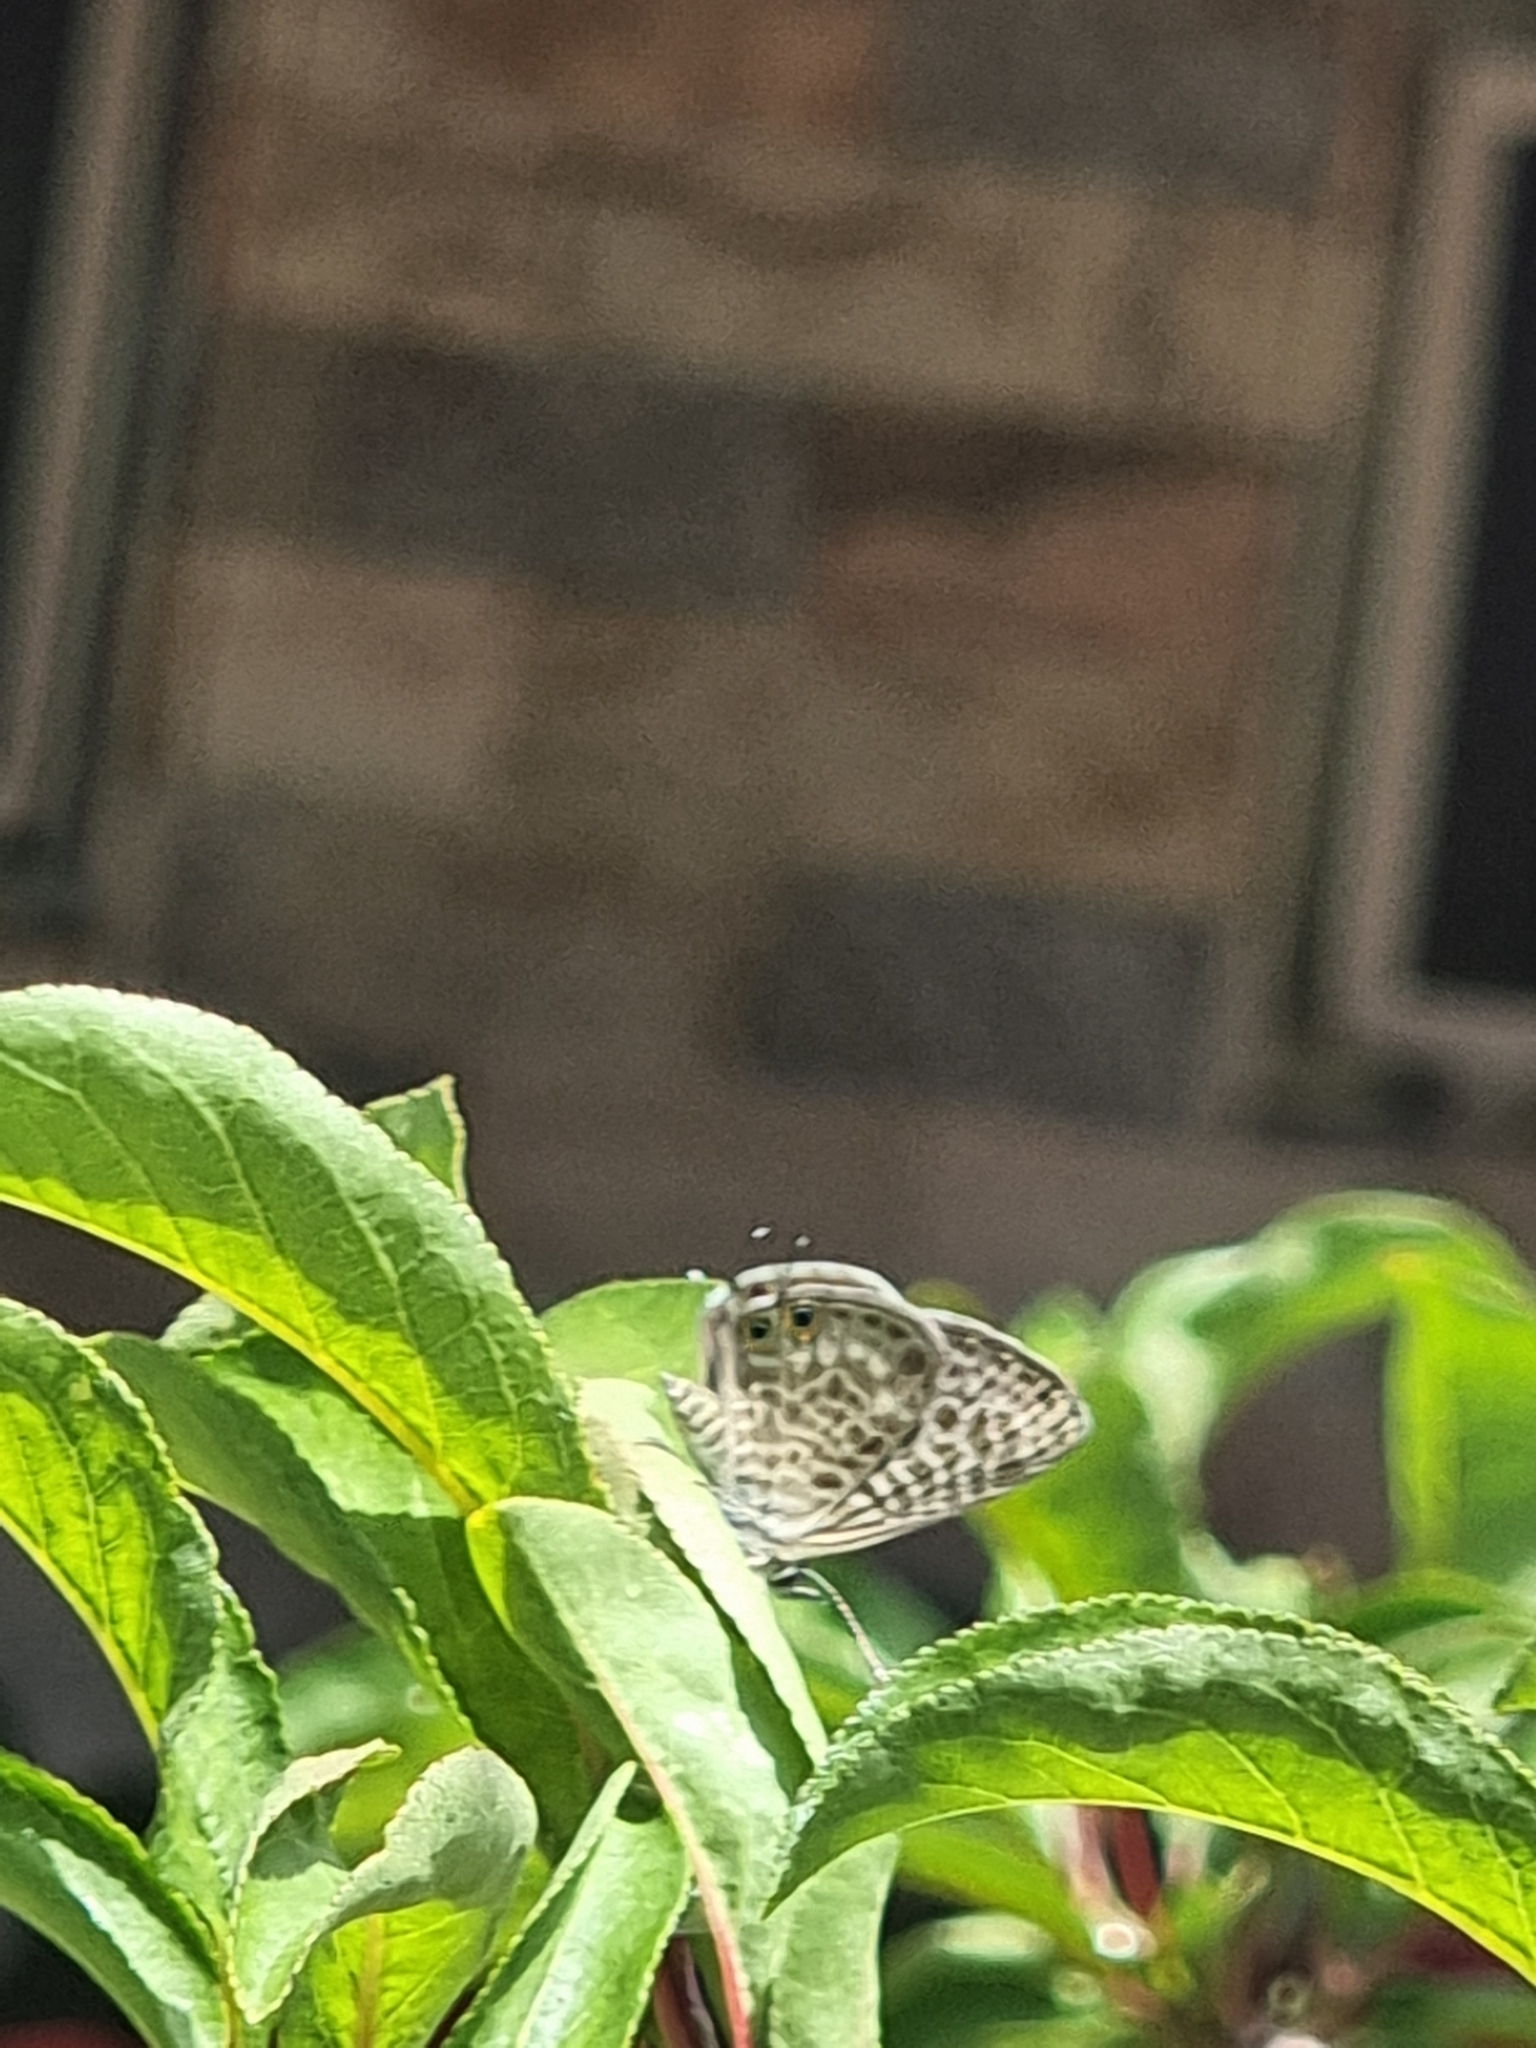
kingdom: Animalia
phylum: Arthropoda
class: Insecta
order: Lepidoptera
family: Lycaenidae
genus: Leptotes
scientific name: Leptotes pirithous
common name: Lang's short-tailed blue
